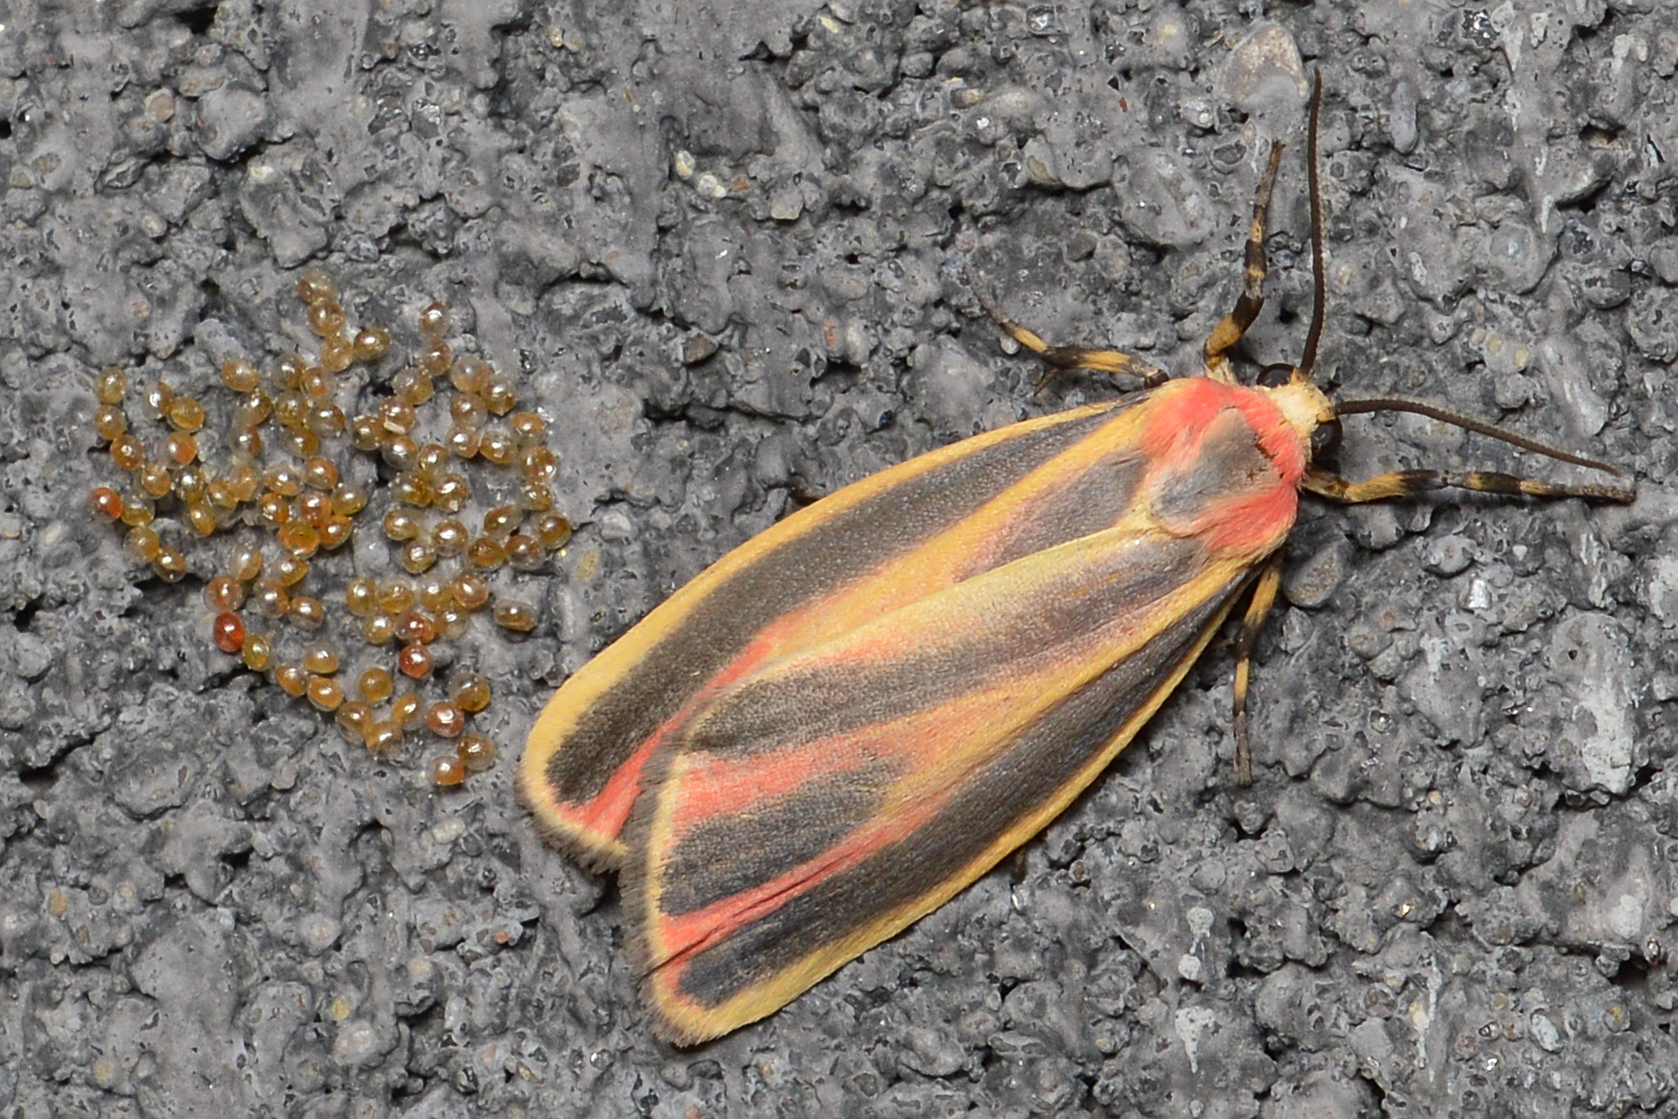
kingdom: Animalia
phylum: Arthropoda
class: Insecta
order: Lepidoptera
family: Erebidae
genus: Hypoprepia
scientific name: Hypoprepia fucosa
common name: Painted lichen moth
